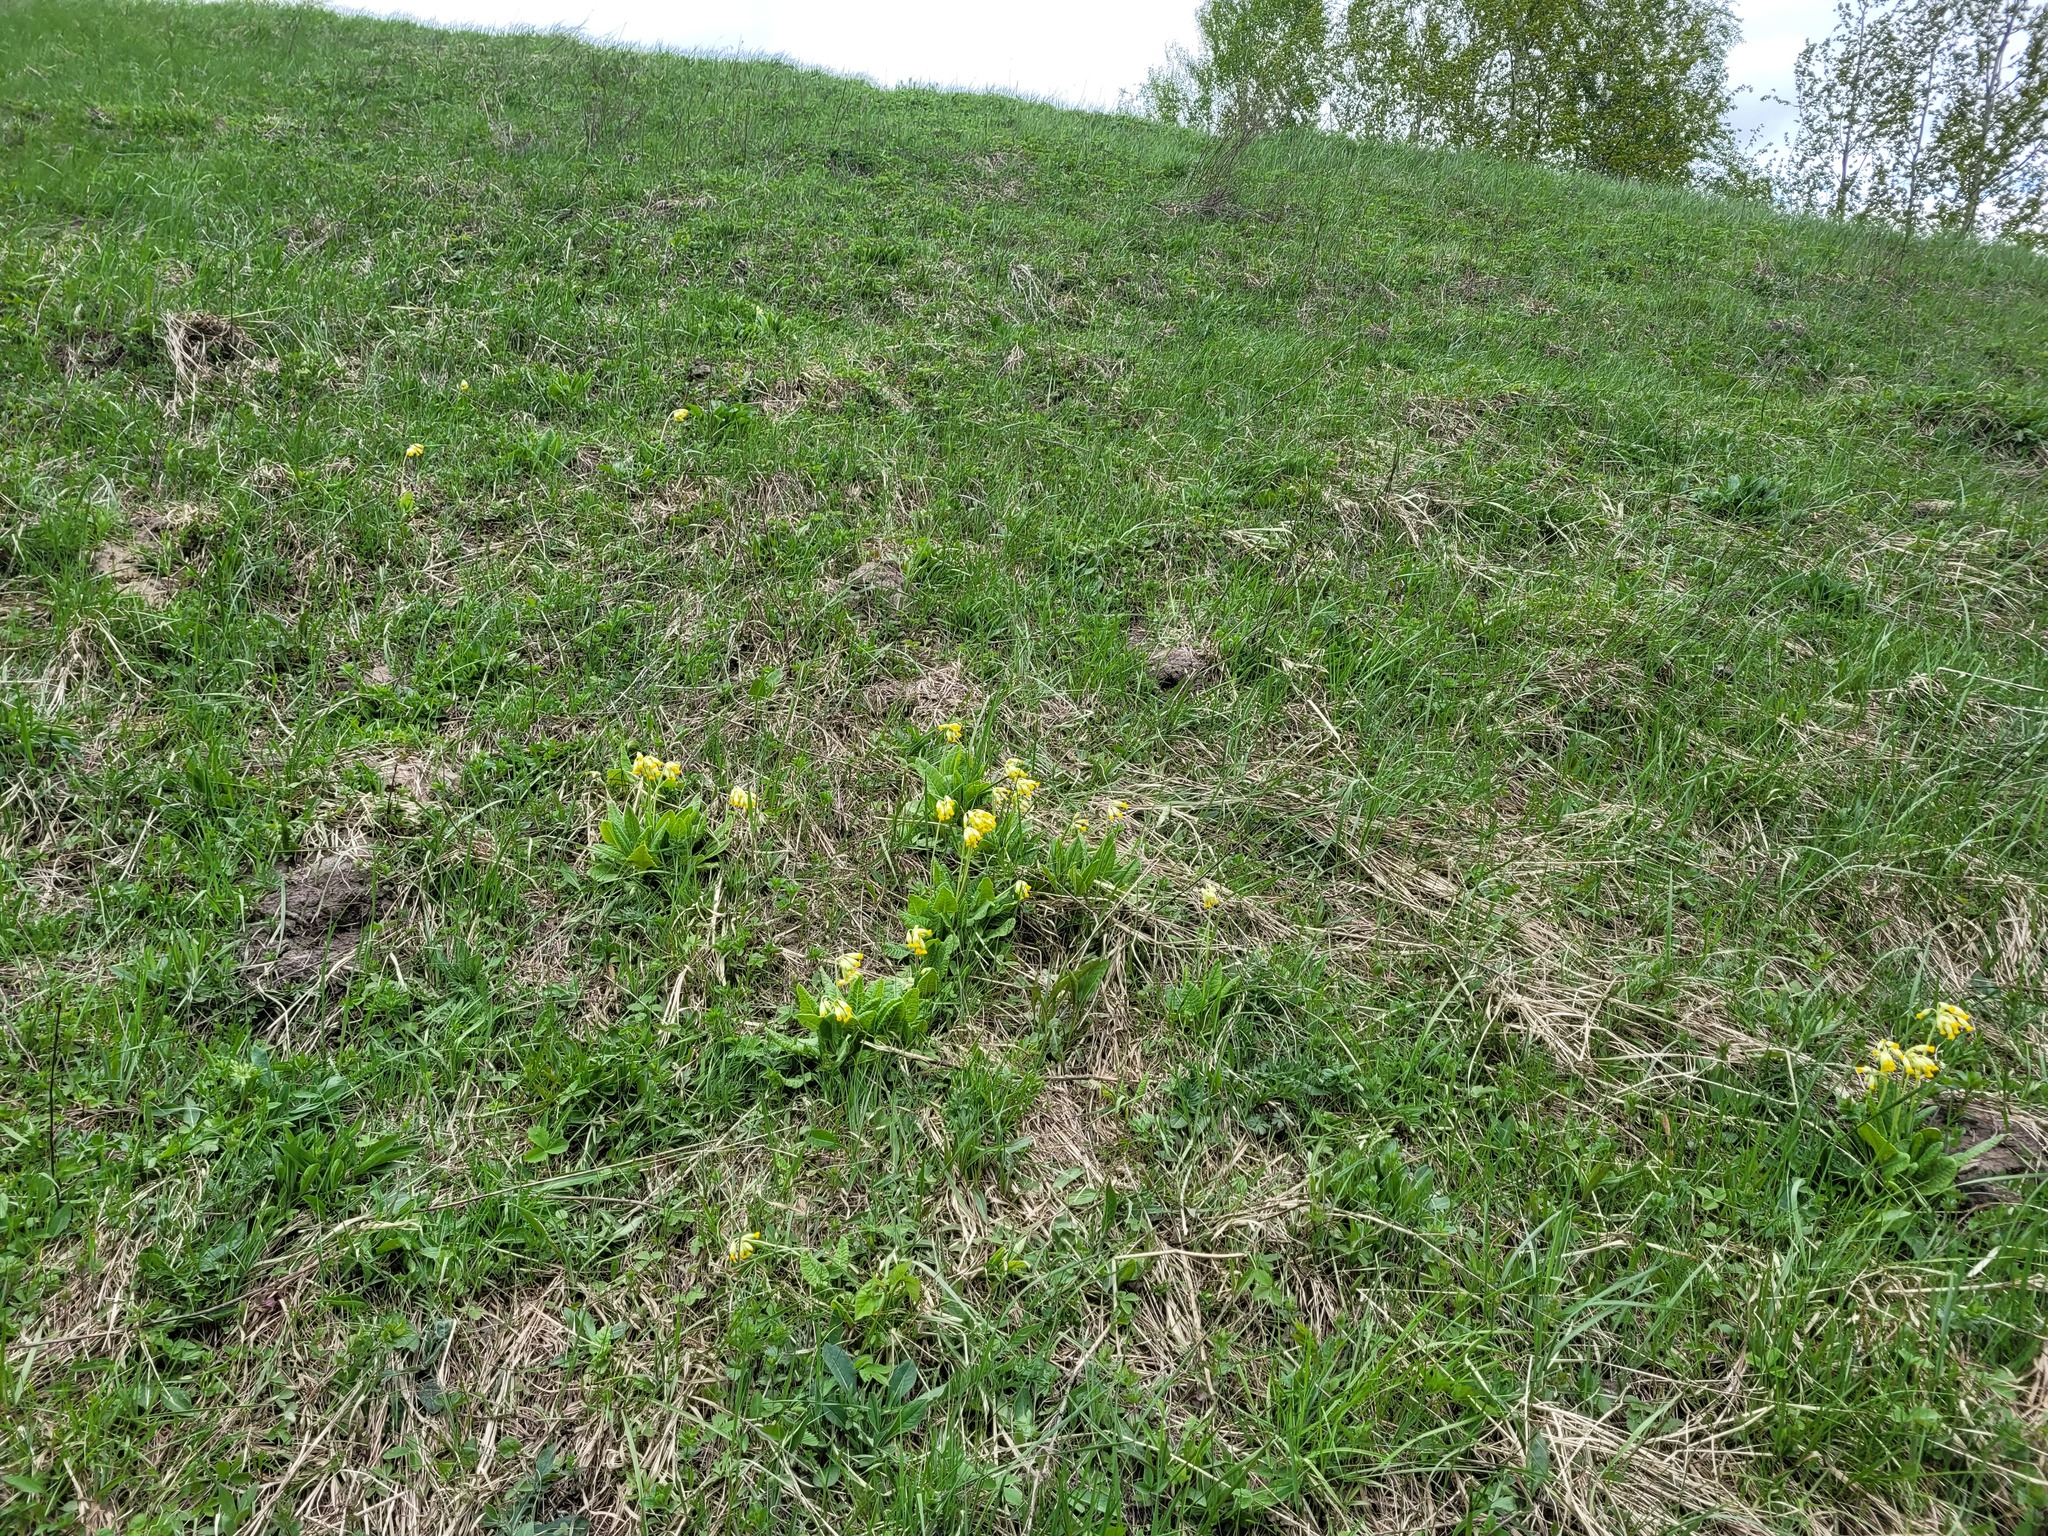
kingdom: Plantae
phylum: Tracheophyta
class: Magnoliopsida
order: Ericales
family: Primulaceae
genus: Primula
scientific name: Primula veris
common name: Cowslip
